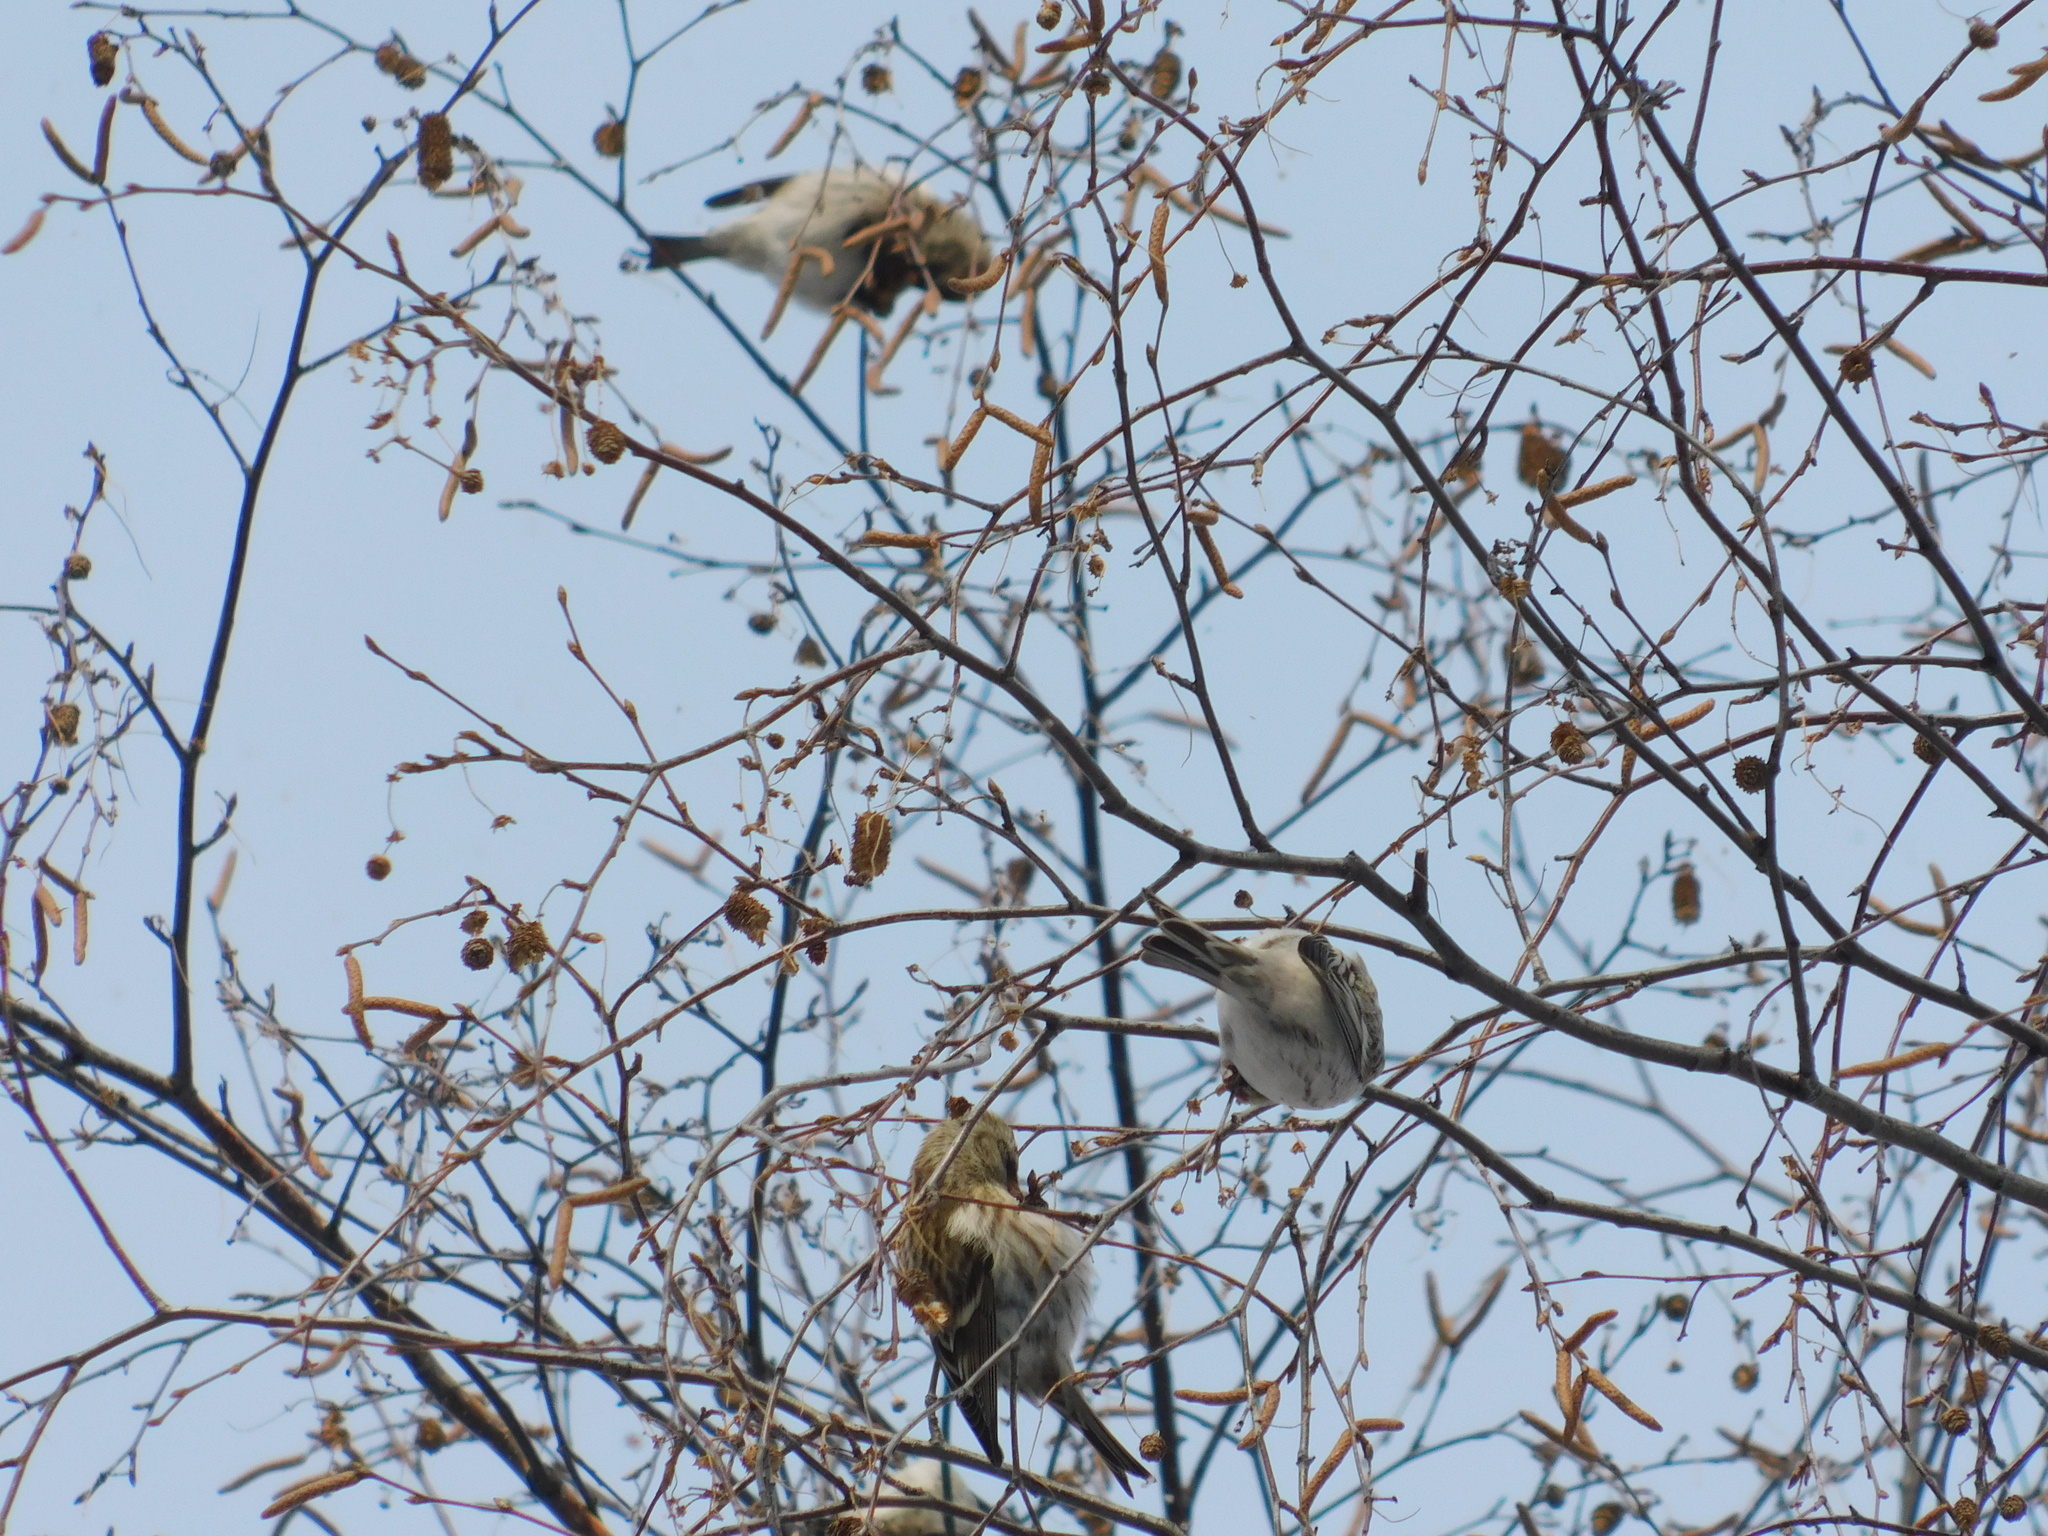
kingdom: Animalia
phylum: Chordata
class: Aves
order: Passeriformes
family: Fringillidae
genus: Acanthis
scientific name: Acanthis hornemanni
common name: Arctic redpoll
